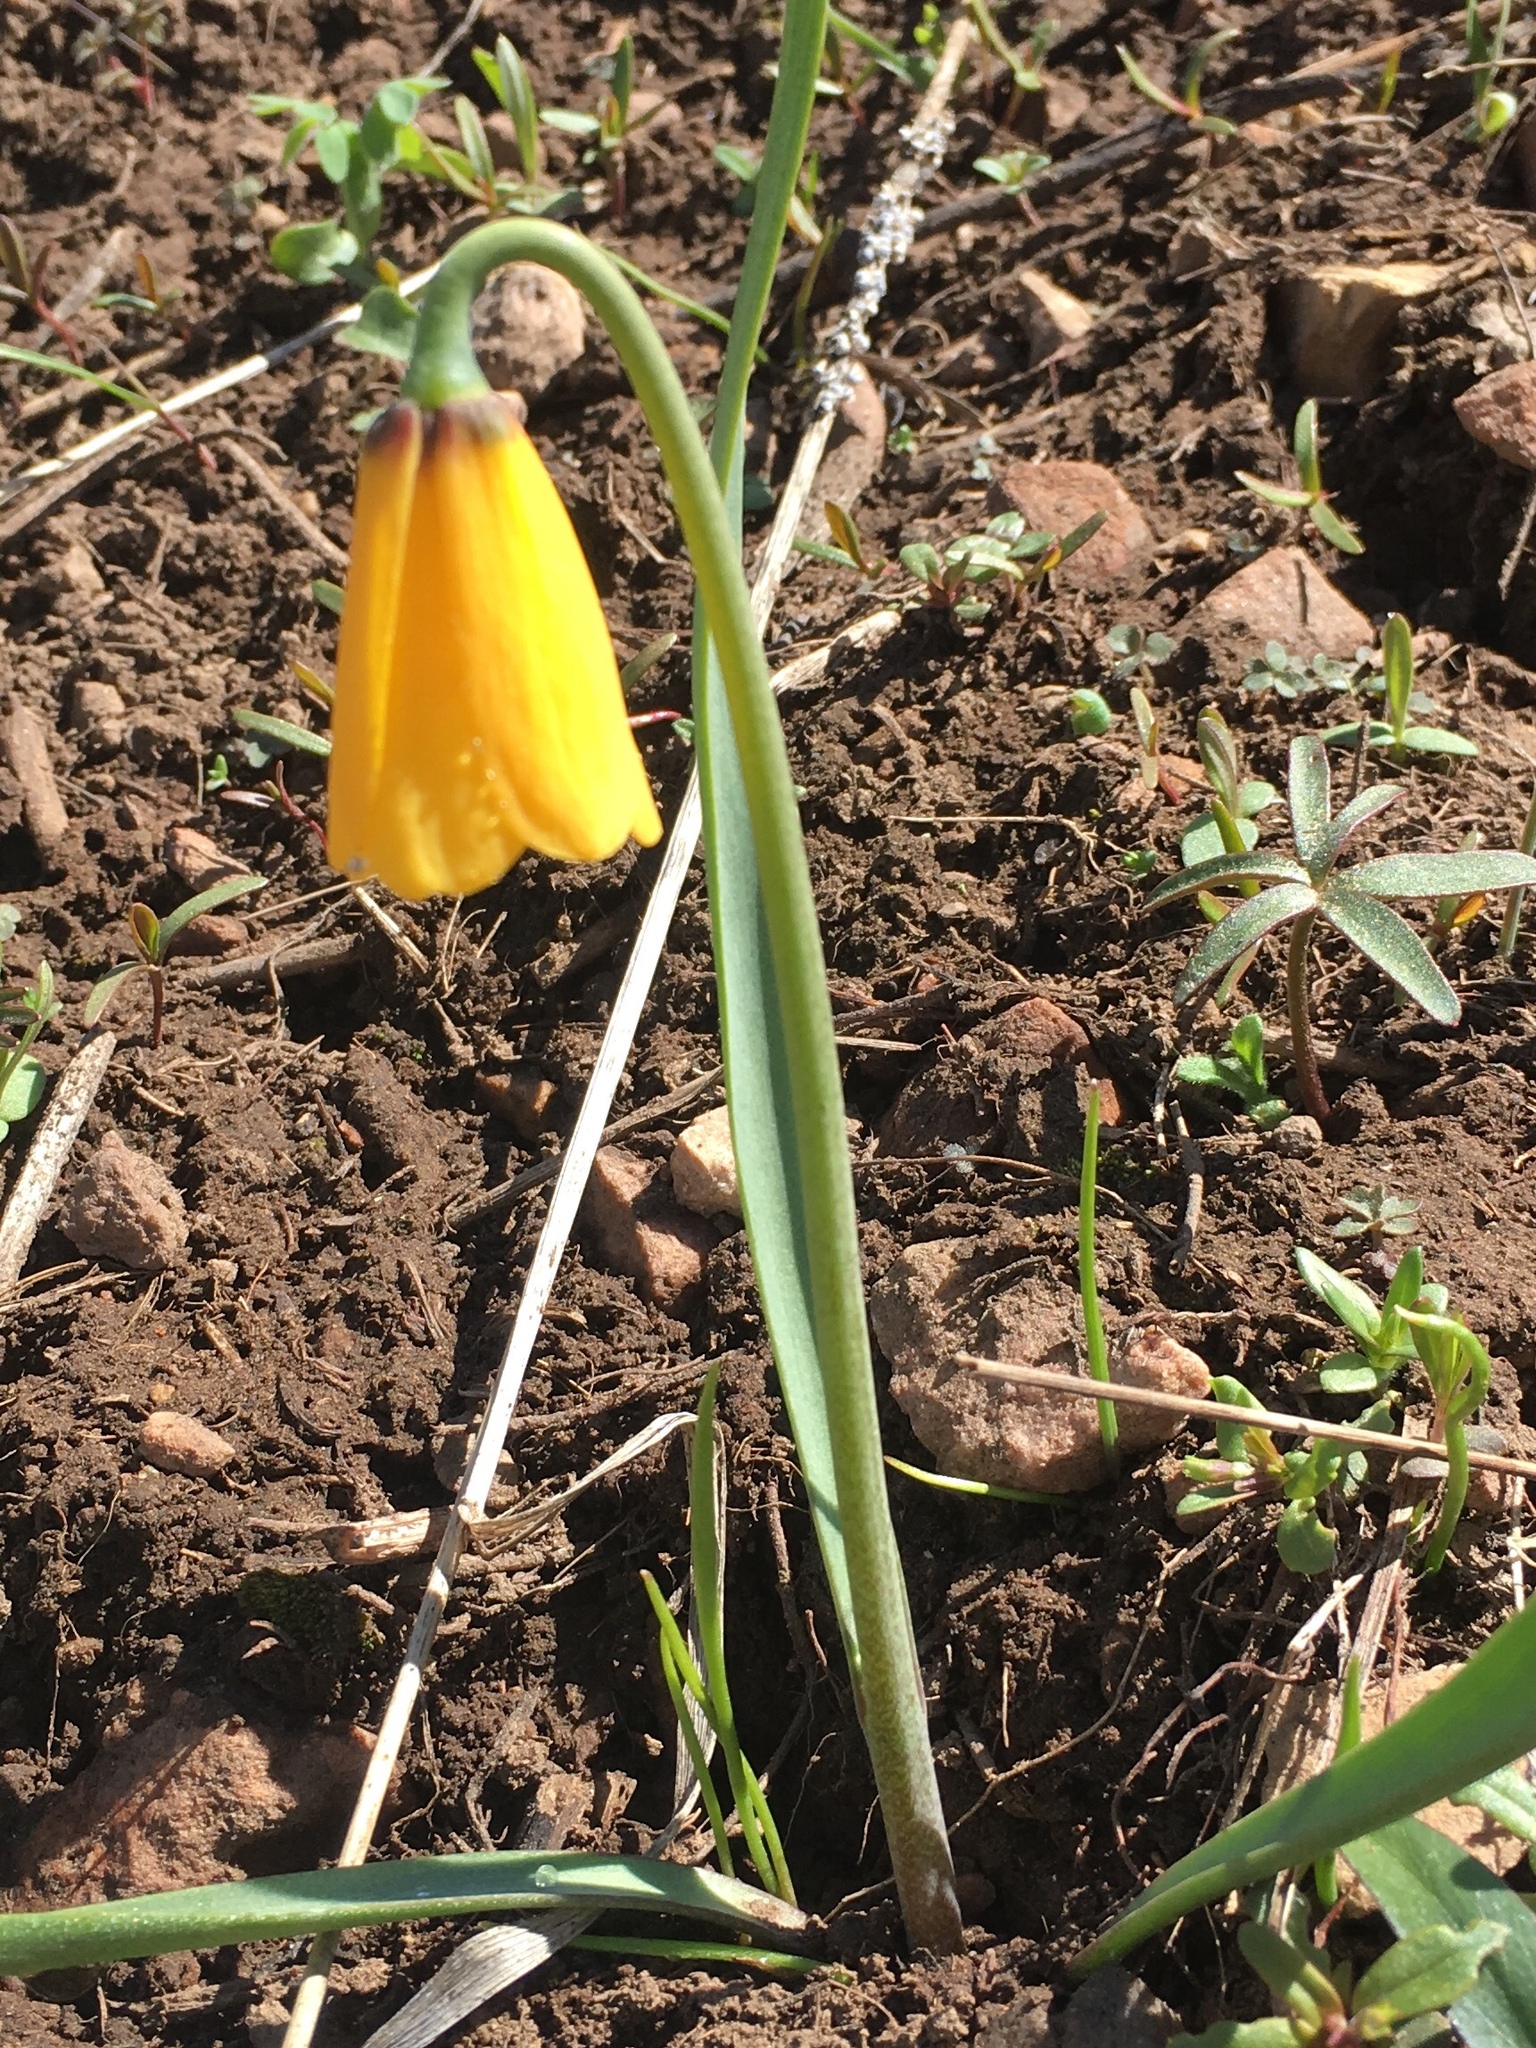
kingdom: Plantae
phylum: Tracheophyta
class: Liliopsida
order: Liliales
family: Liliaceae
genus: Fritillaria
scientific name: Fritillaria pudica
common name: Yellow fritillary
